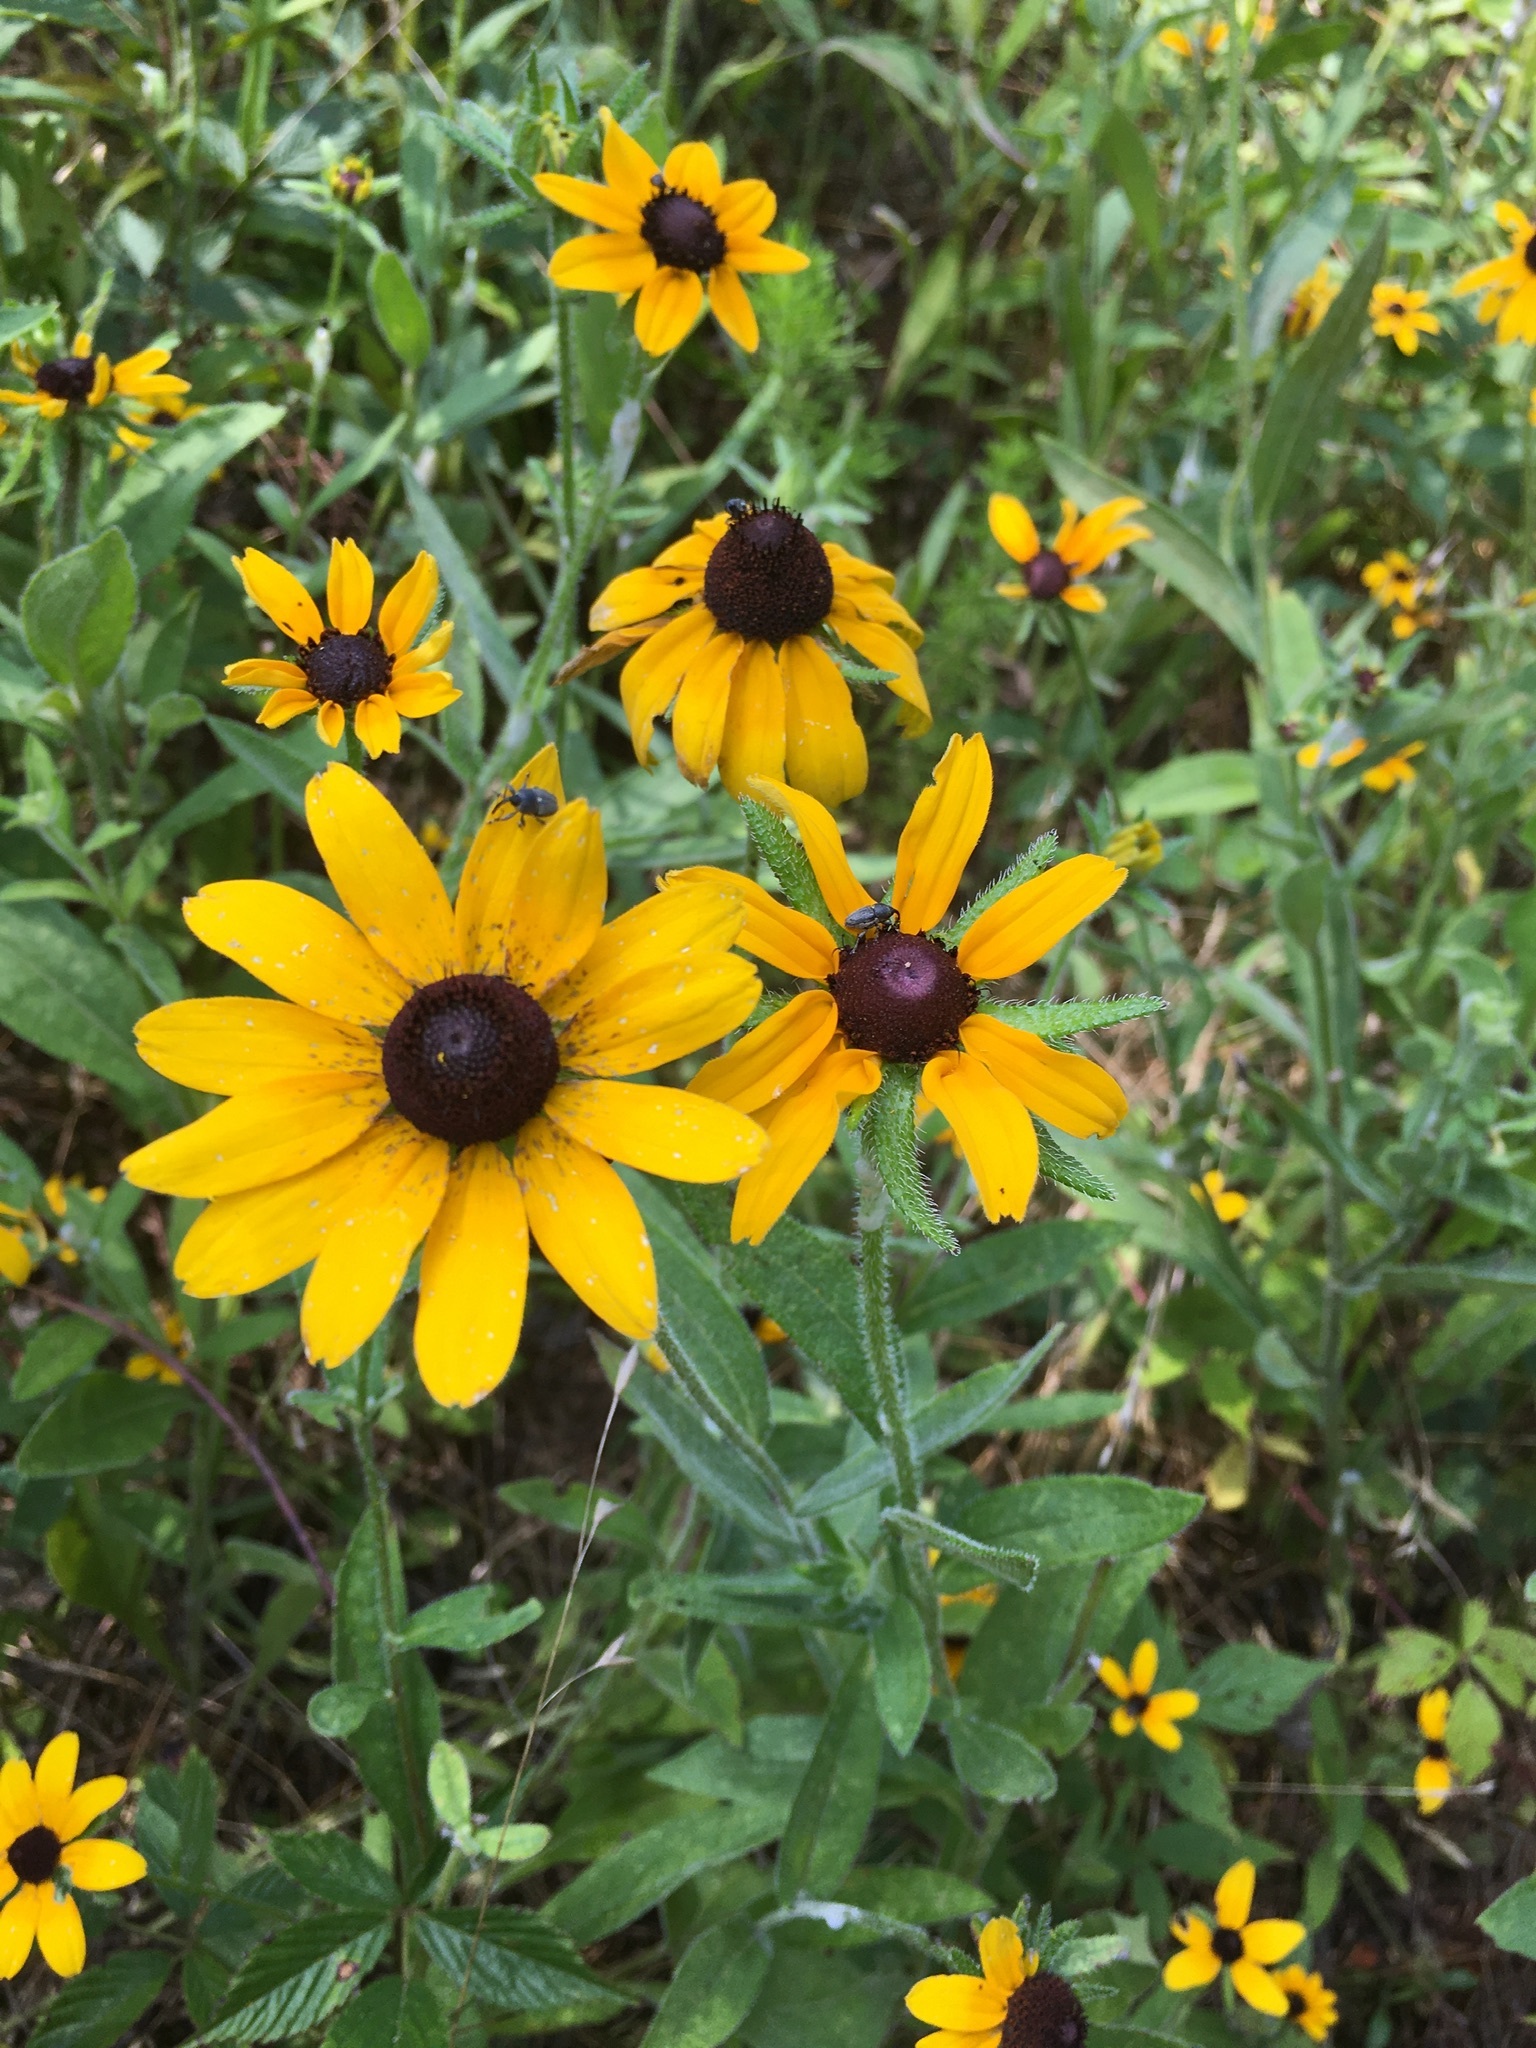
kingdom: Plantae
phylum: Tracheophyta
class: Magnoliopsida
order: Asterales
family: Asteraceae
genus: Rudbeckia
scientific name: Rudbeckia hirta
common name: Black-eyed-susan
